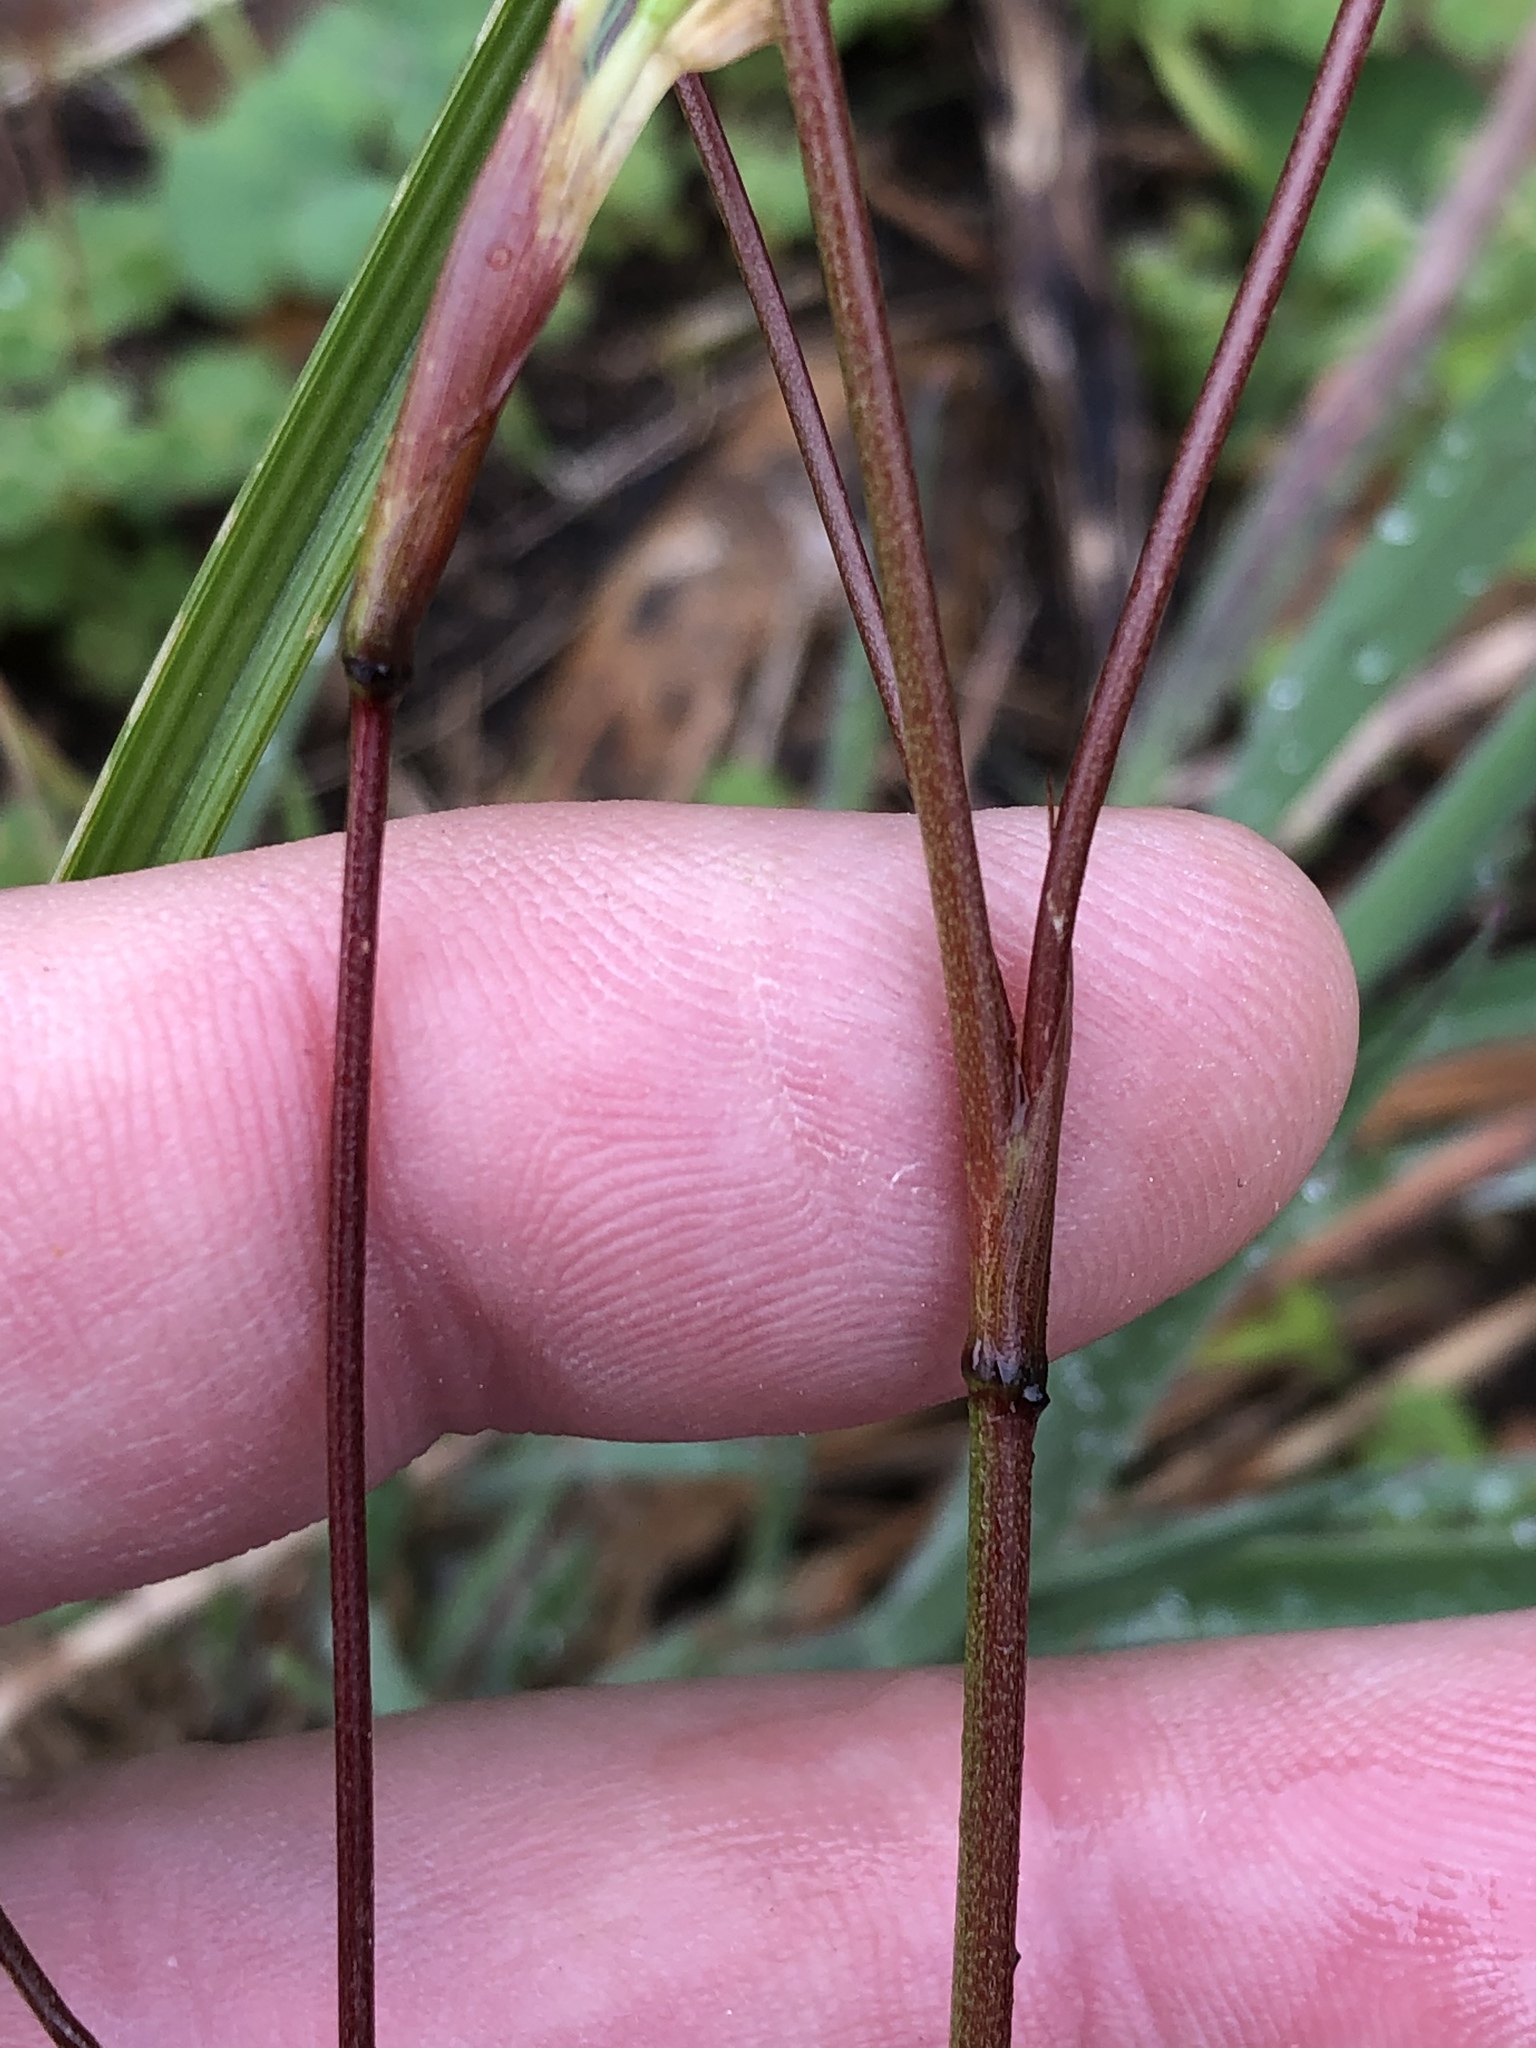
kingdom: Plantae
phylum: Tracheophyta
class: Liliopsida
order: Asparagales
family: Iridaceae
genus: Moraea
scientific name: Moraea gawleri
